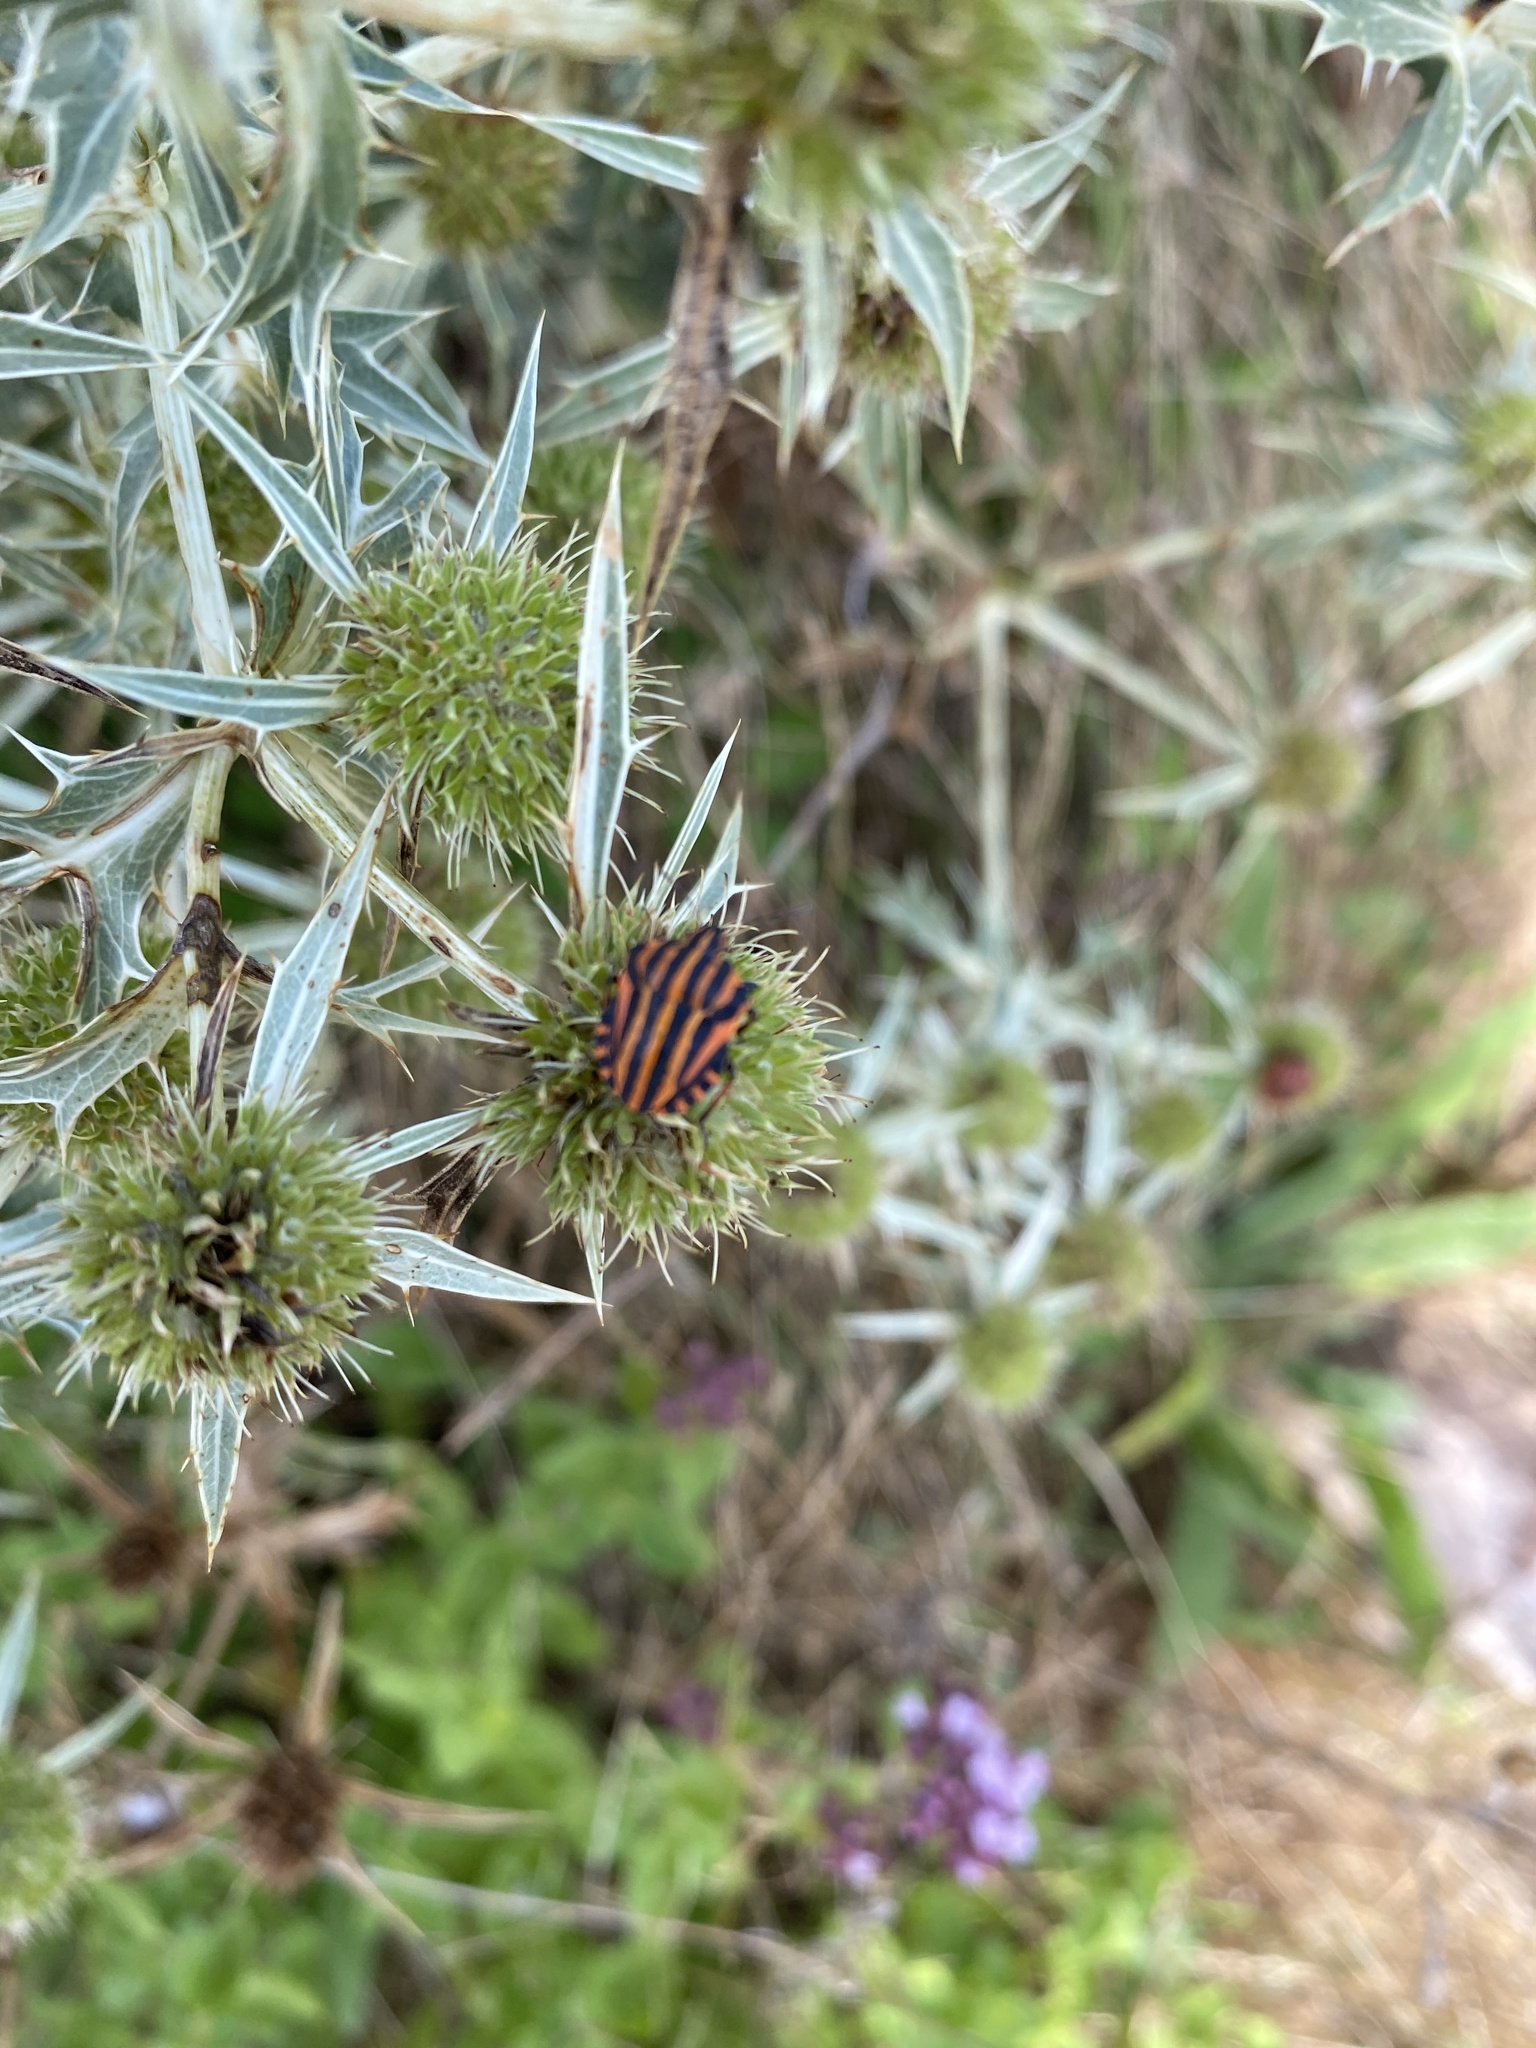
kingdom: Animalia
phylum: Arthropoda
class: Insecta
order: Hemiptera
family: Pentatomidae
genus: Graphosoma
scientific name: Graphosoma italicum
